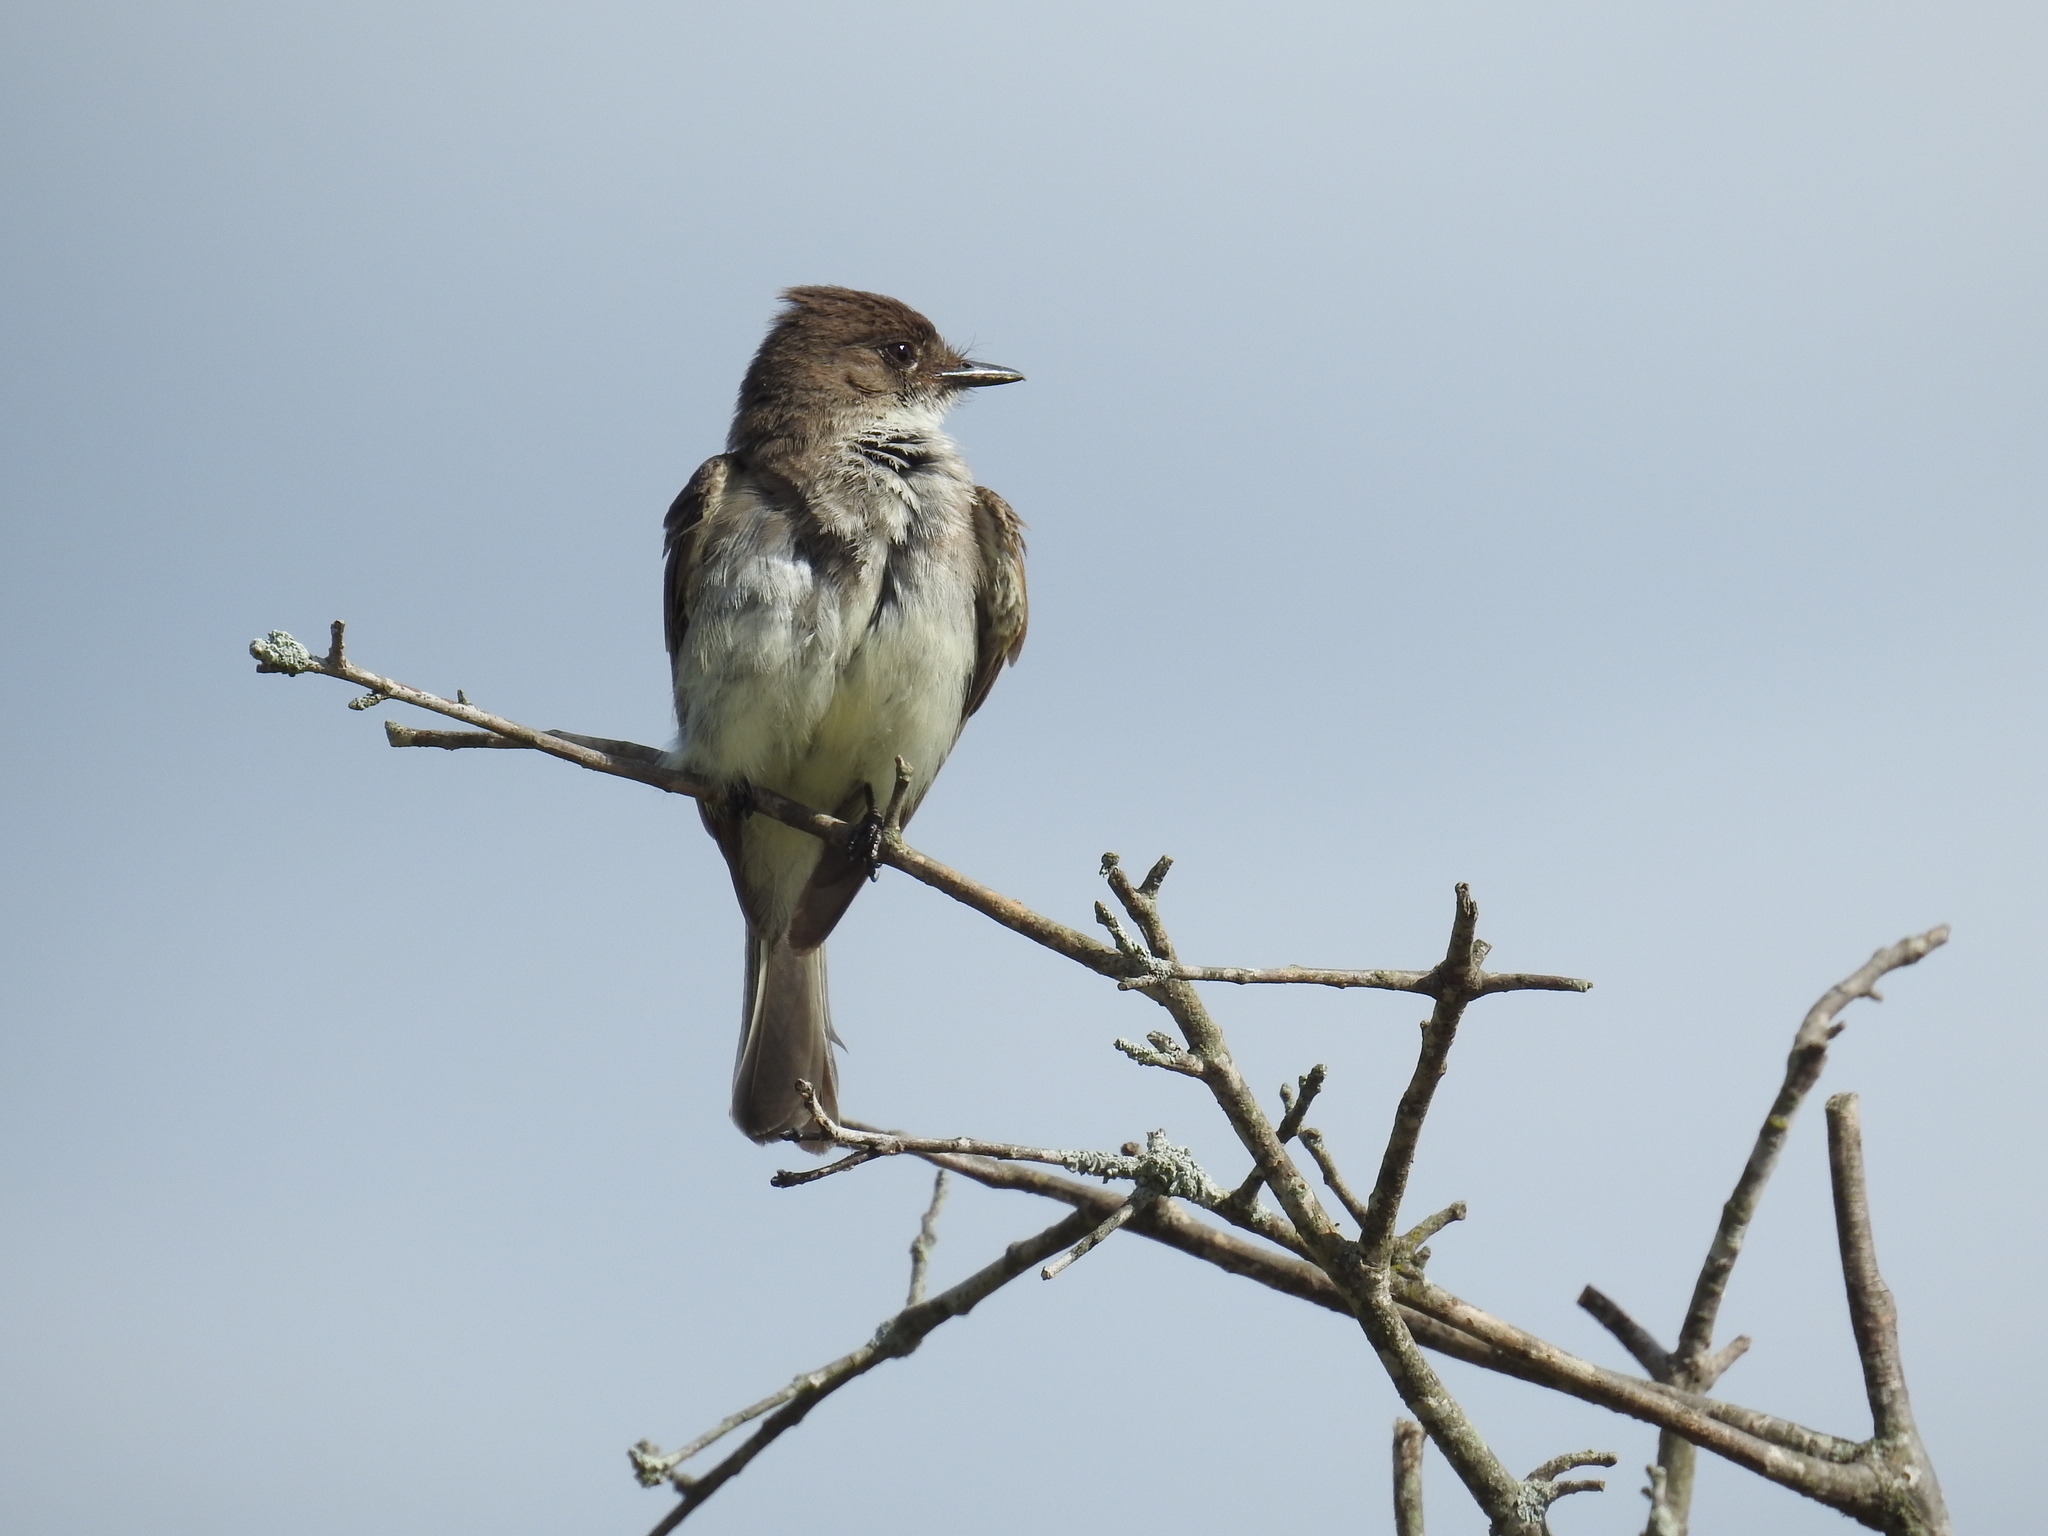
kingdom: Animalia
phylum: Chordata
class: Aves
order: Passeriformes
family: Tyrannidae
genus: Sayornis
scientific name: Sayornis phoebe
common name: Eastern phoebe
